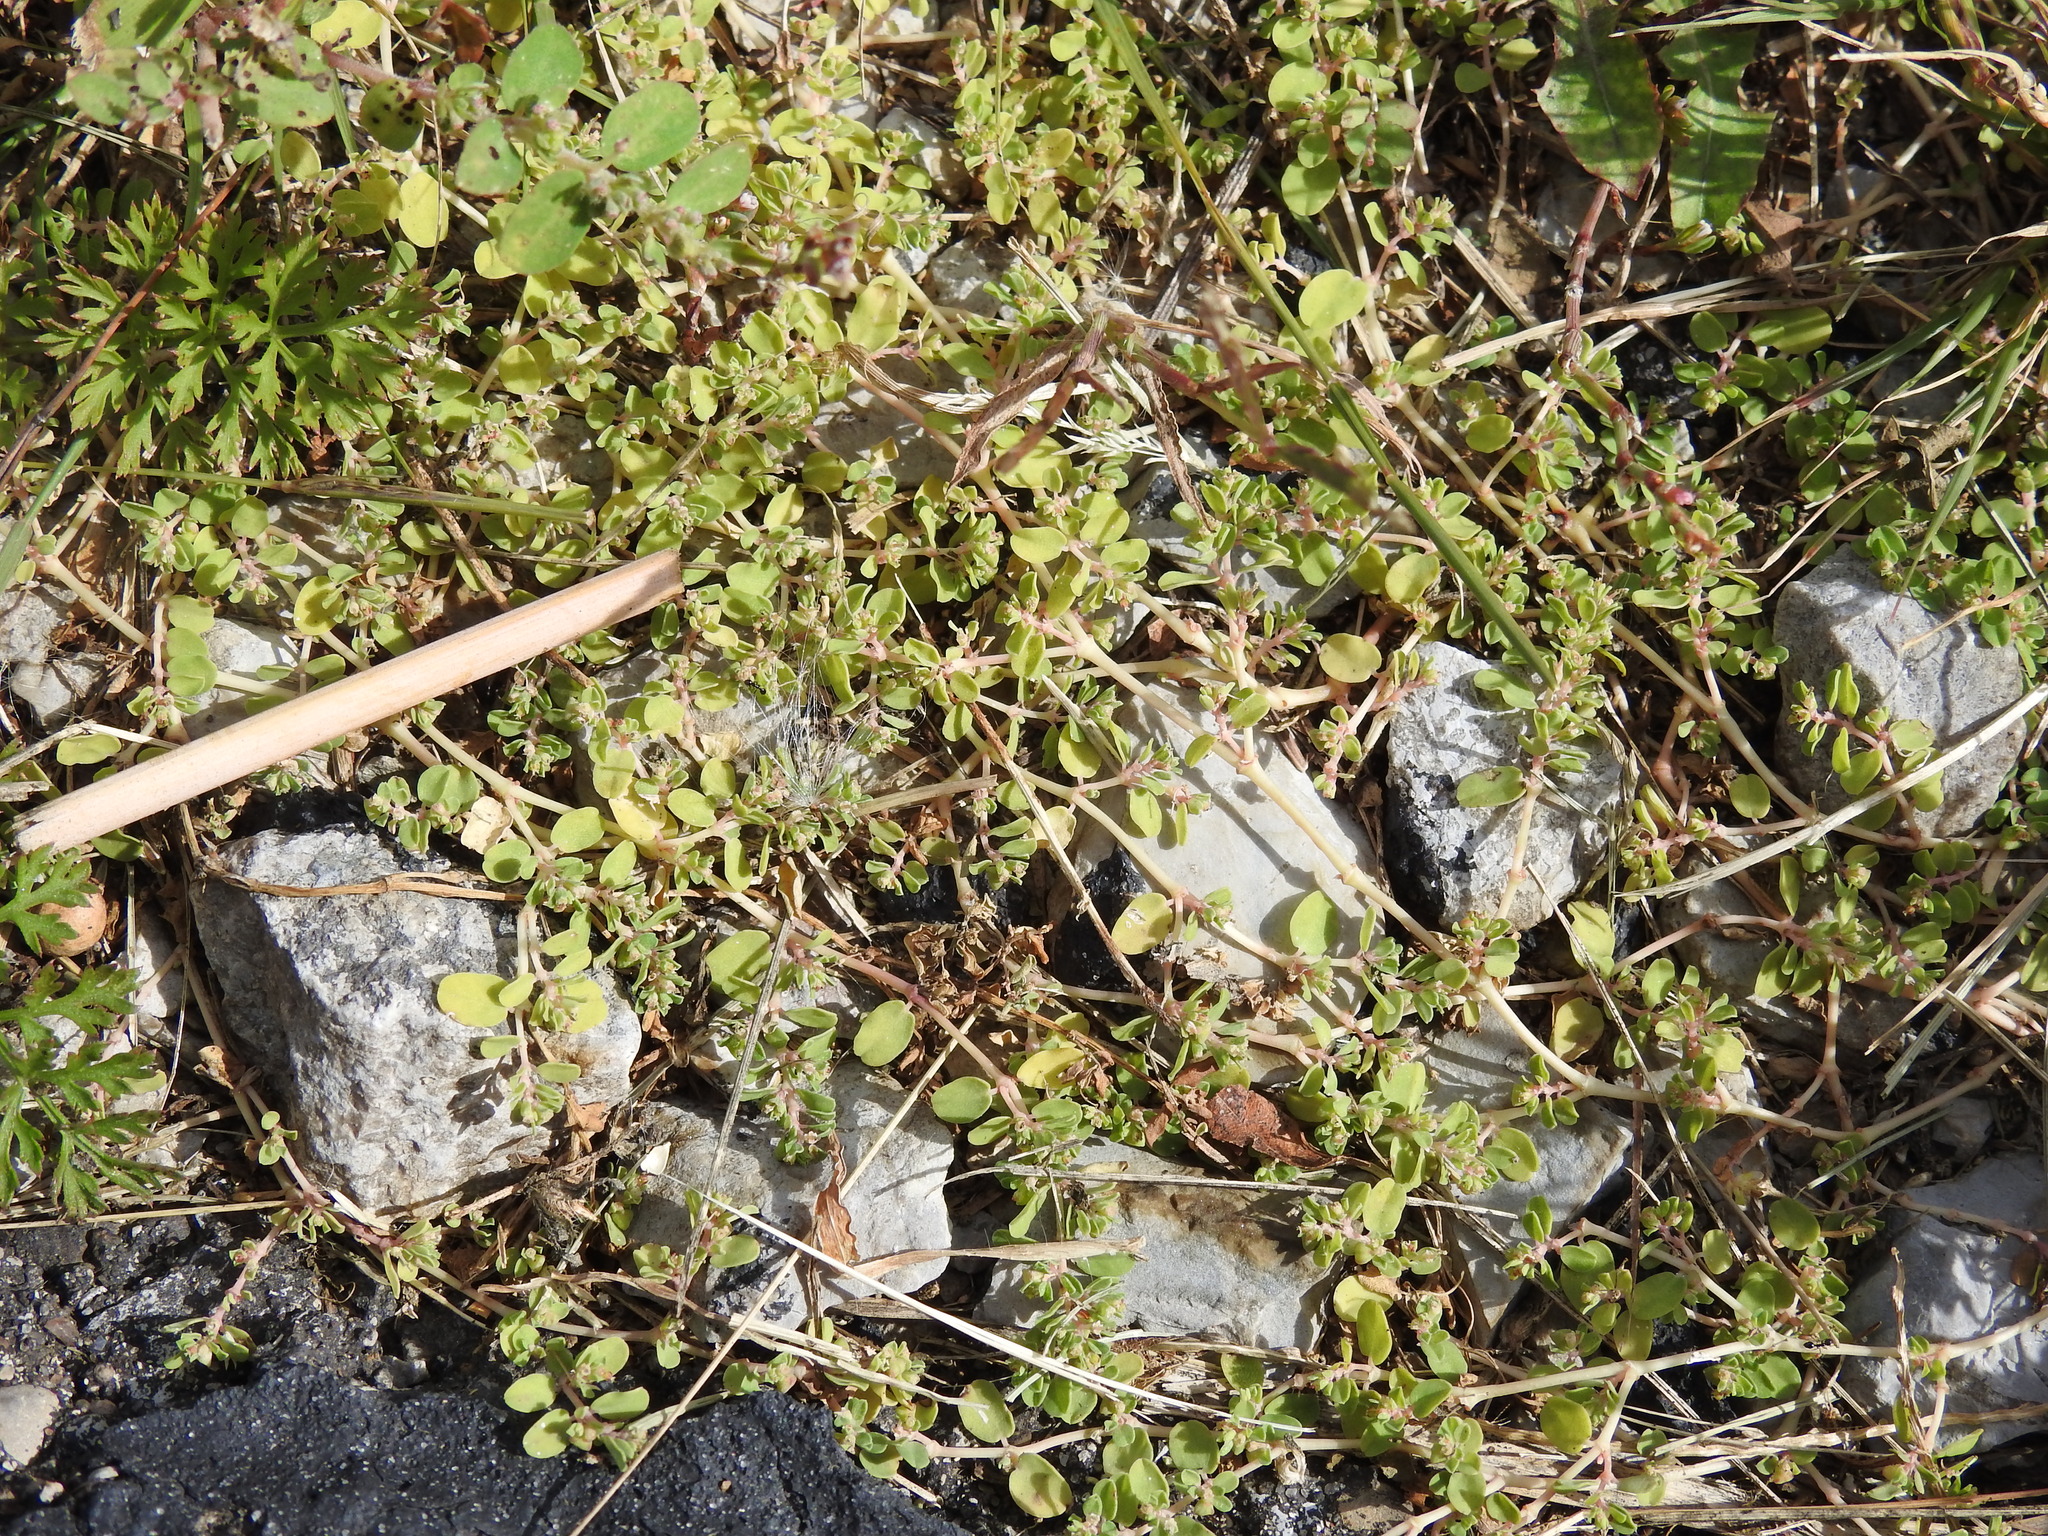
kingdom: Plantae
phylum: Tracheophyta
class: Magnoliopsida
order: Malpighiales
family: Euphorbiaceae
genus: Euphorbia
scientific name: Euphorbia serpens
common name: Matted sandmat
